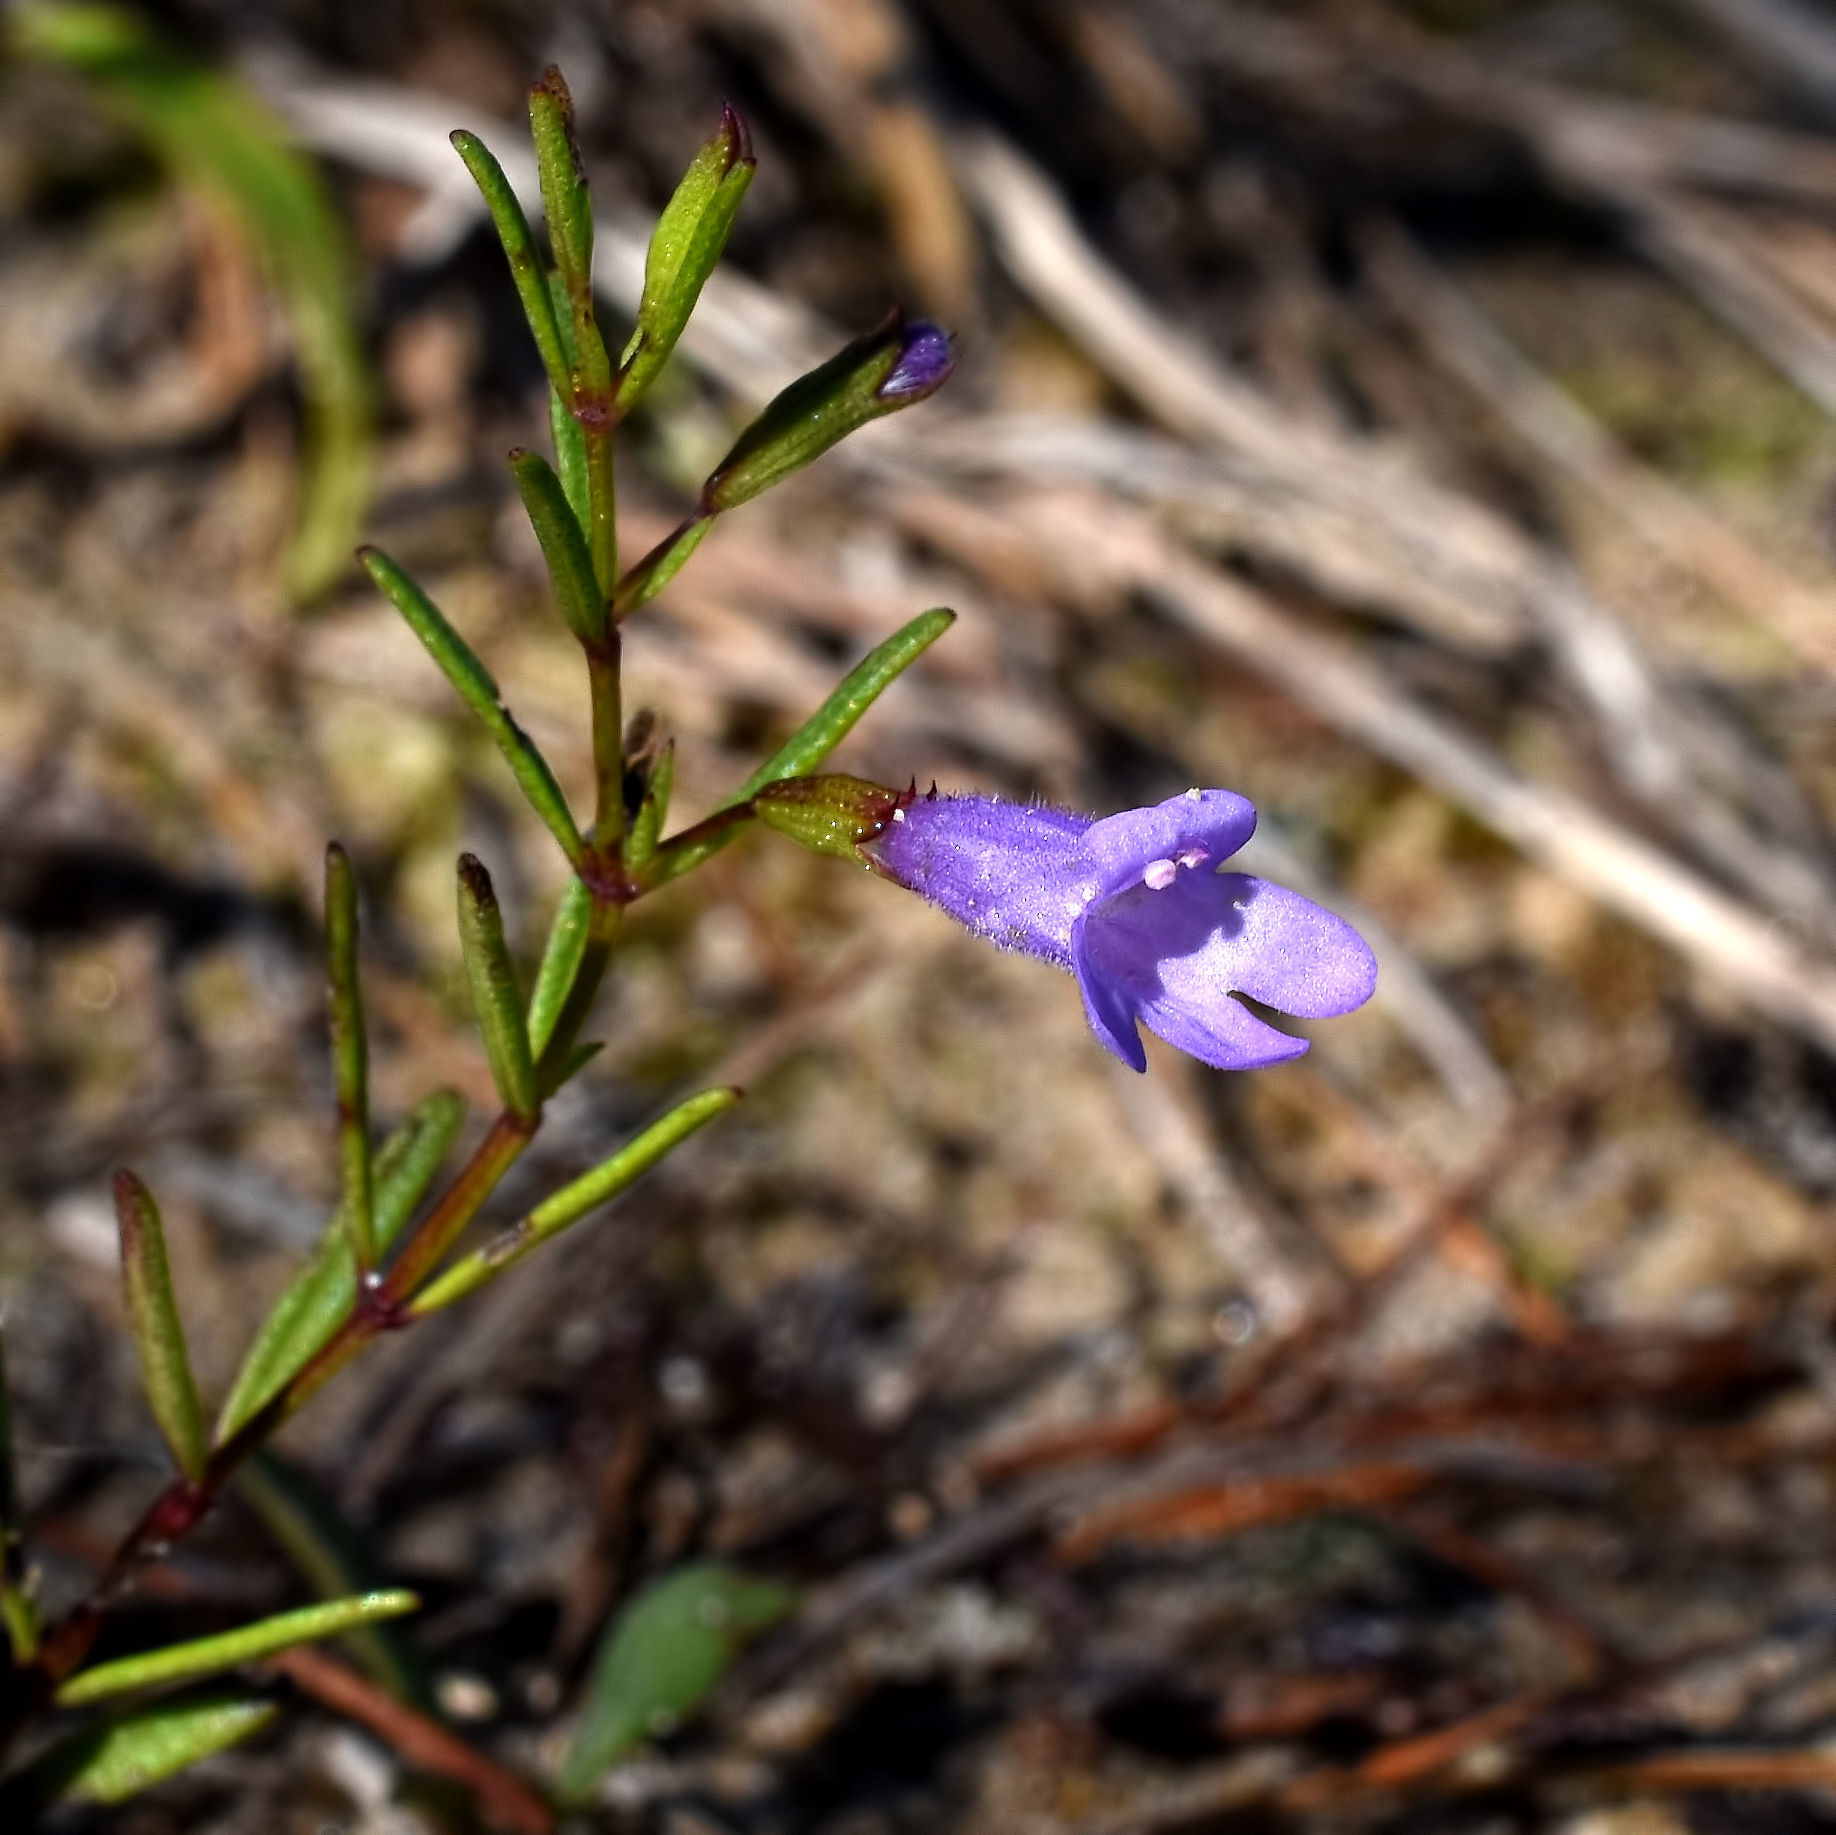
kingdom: Plantae
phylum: Tracheophyta
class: Magnoliopsida
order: Lamiales
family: Lamiaceae
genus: Clinopodium
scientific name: Clinopodium arkansanum
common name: Limestone calamint
